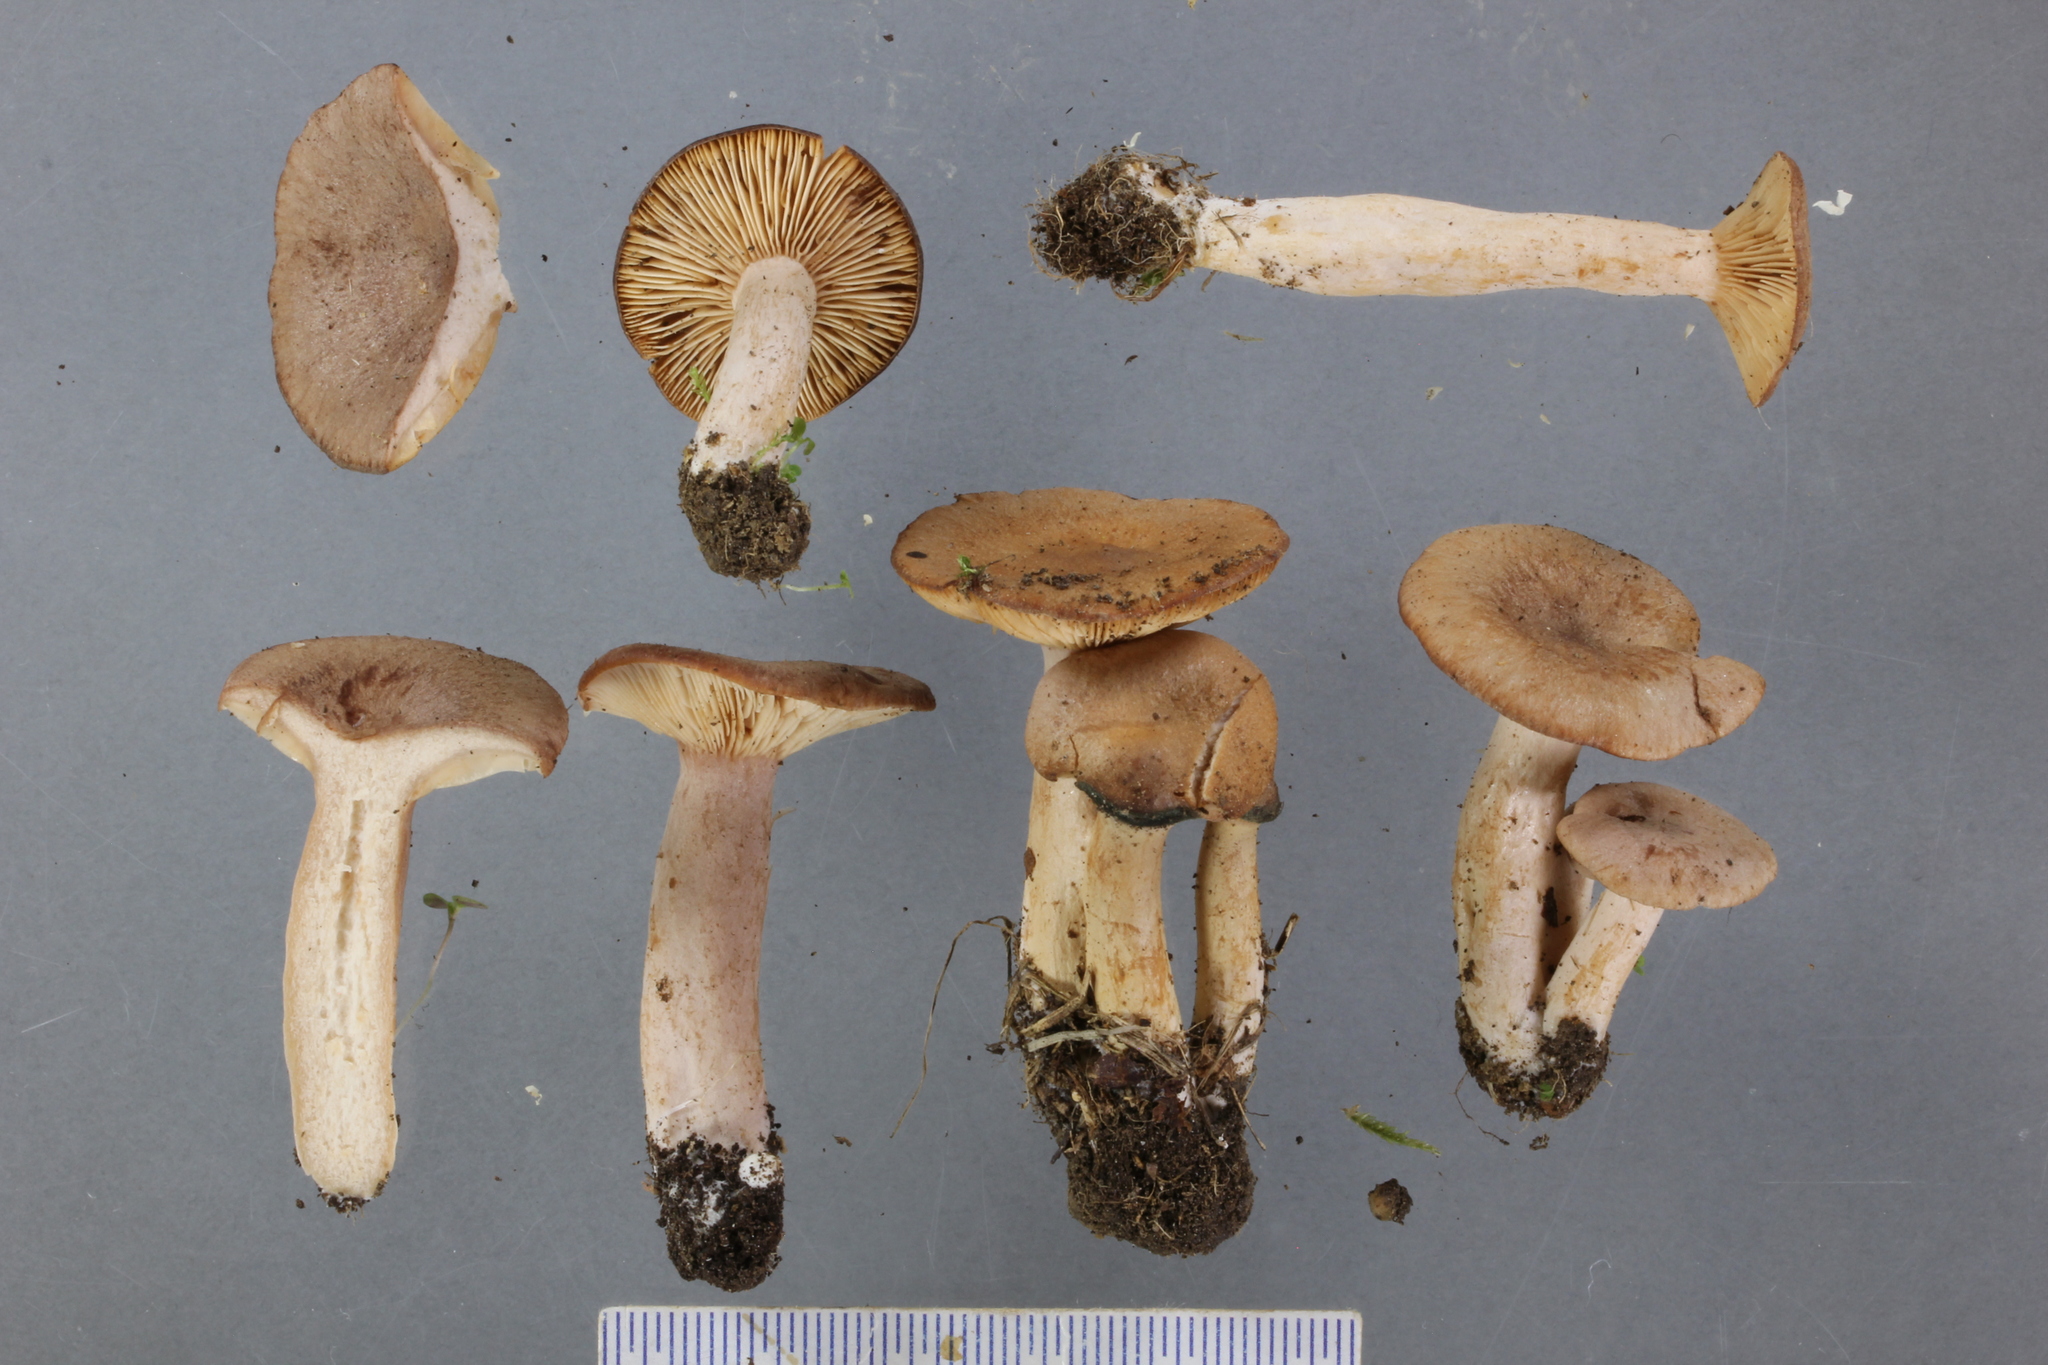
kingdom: Fungi
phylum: Basidiomycota
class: Agaricomycetes
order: Russulales
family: Russulaceae
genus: Lactarius
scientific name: Lactarius glyciosmus
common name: Coconut milkcap
